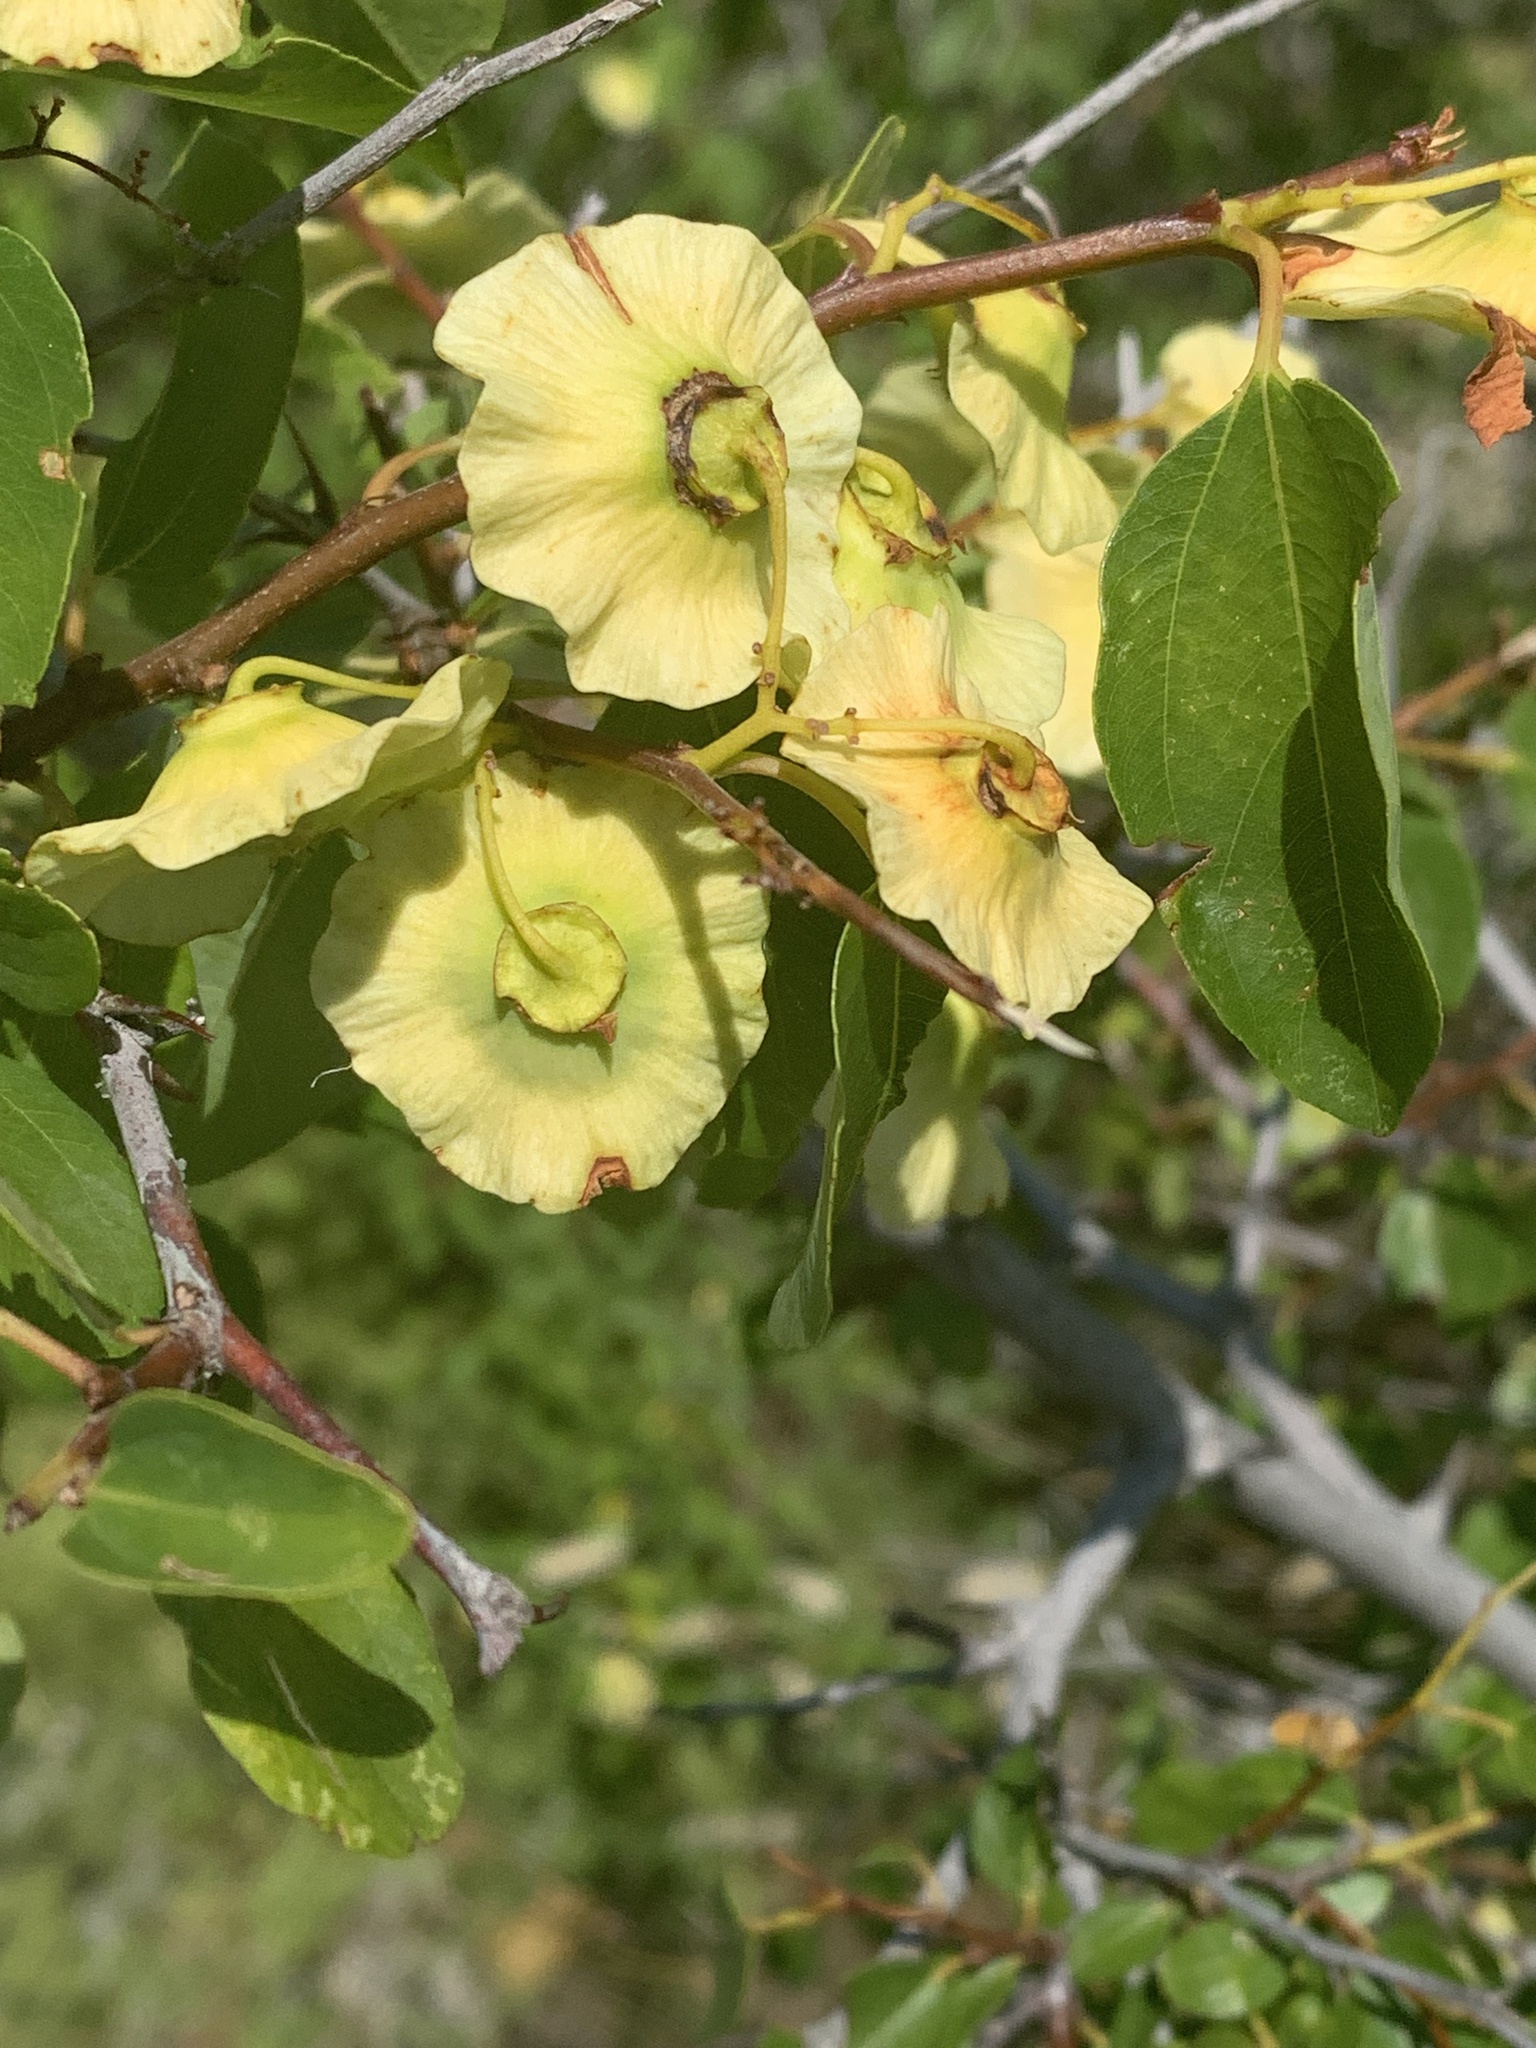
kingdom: Plantae
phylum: Tracheophyta
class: Magnoliopsida
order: Rosales
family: Rhamnaceae
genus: Paliurus
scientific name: Paliurus spina-christi
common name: Jeruselem thorn
